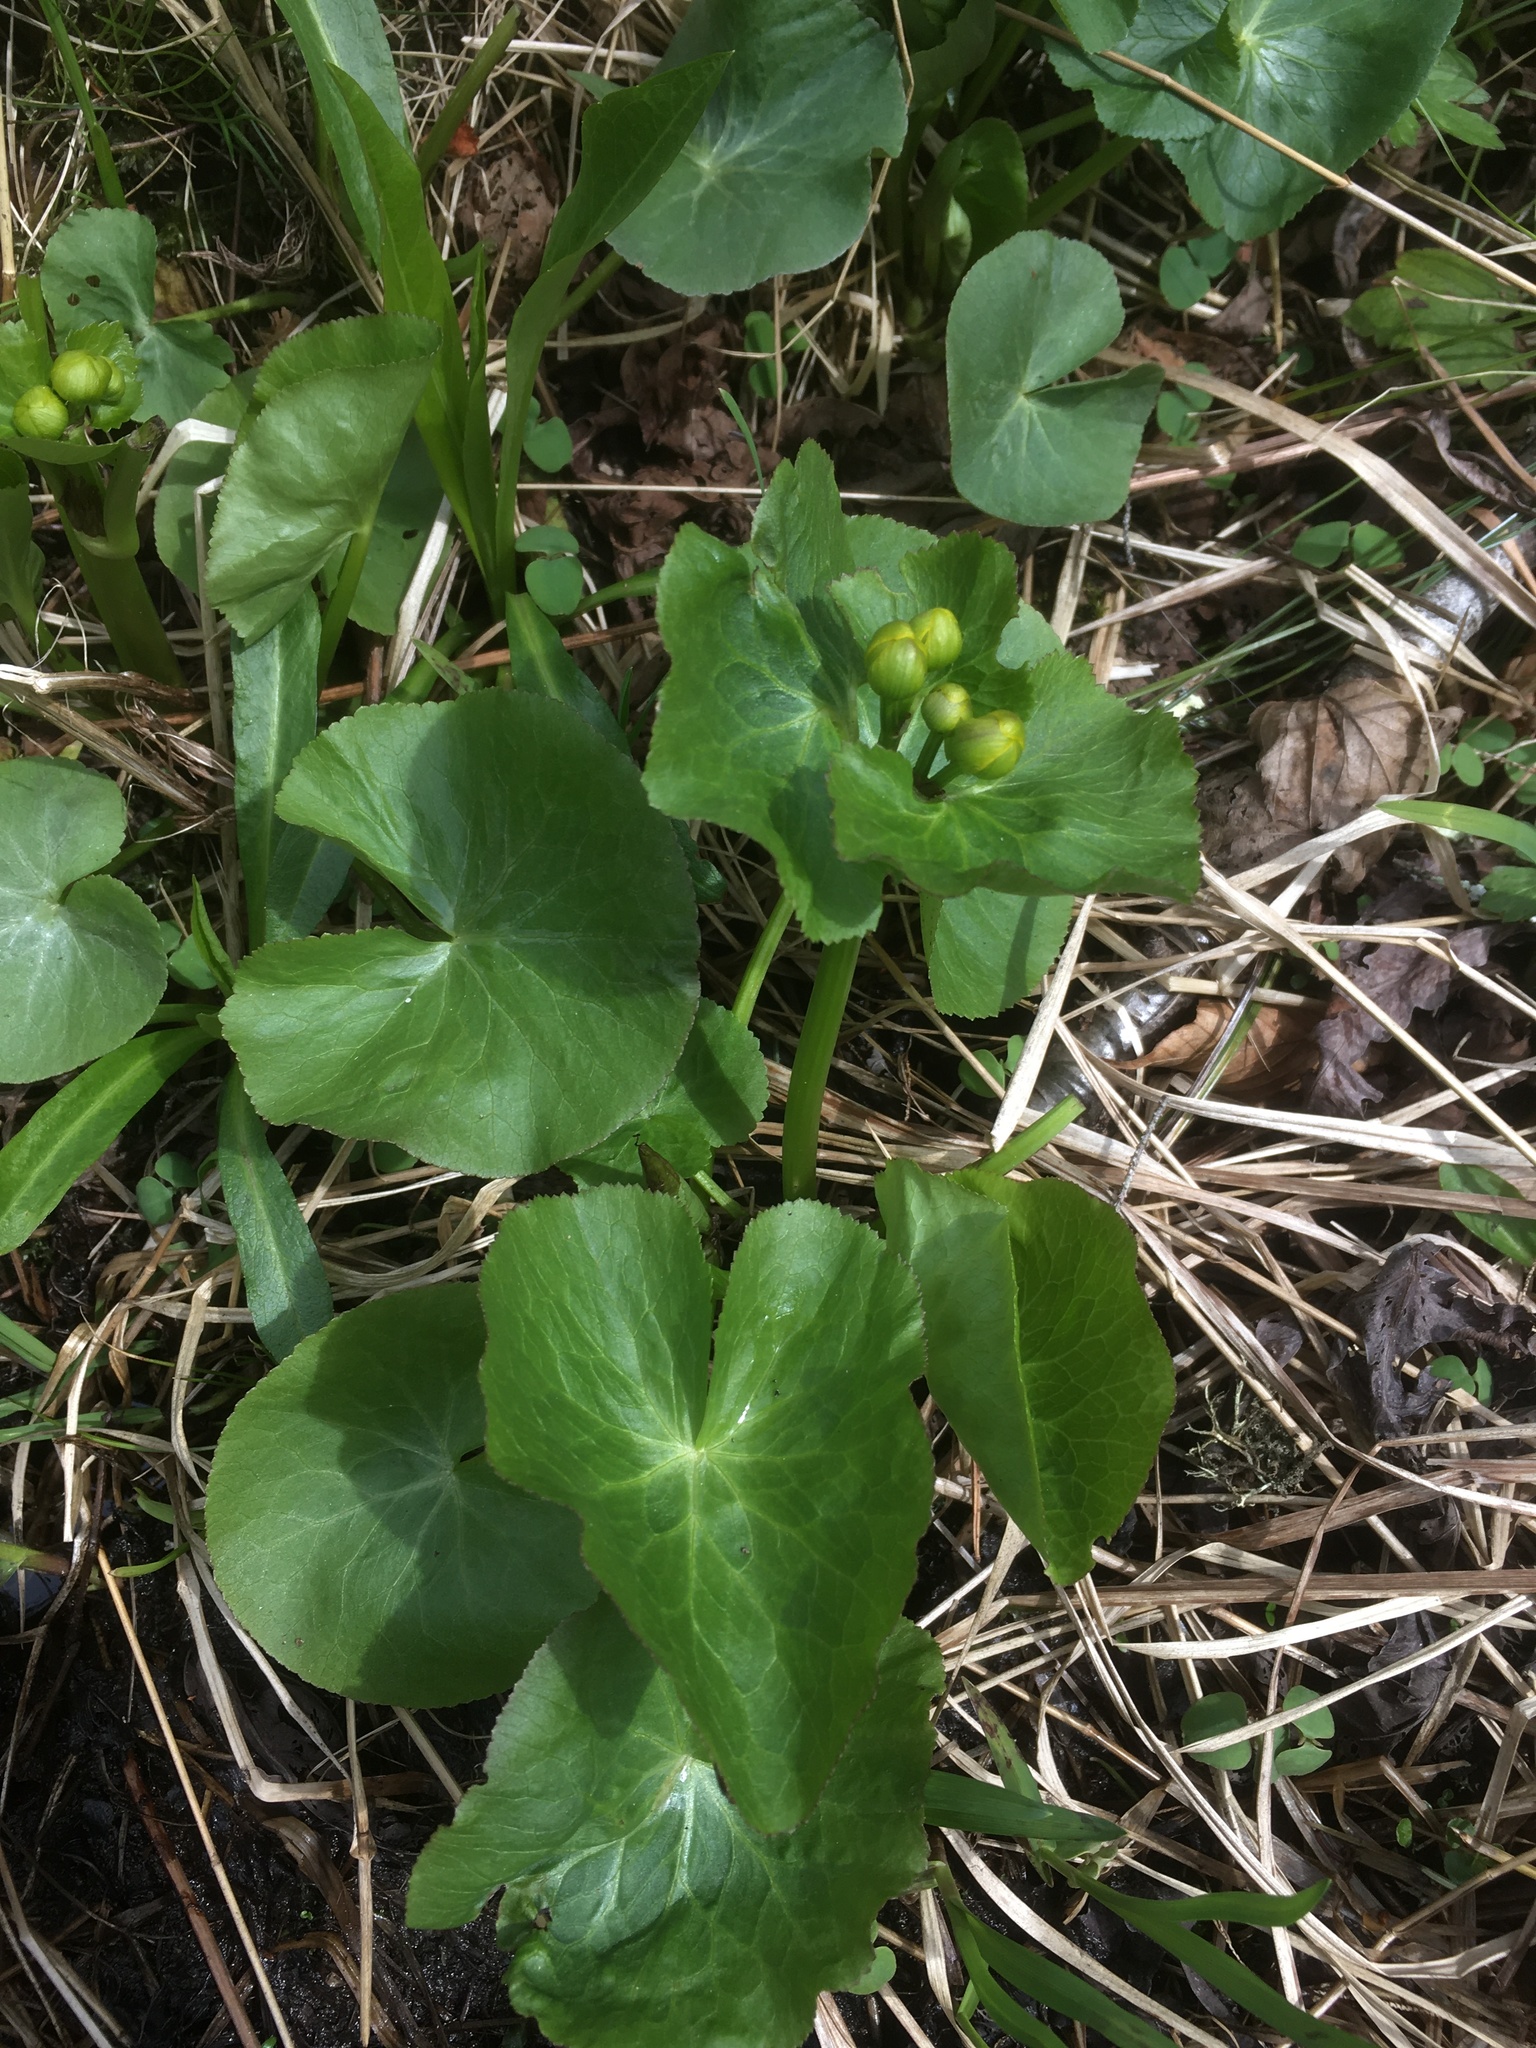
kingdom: Plantae
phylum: Tracheophyta
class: Magnoliopsida
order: Ranunculales
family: Ranunculaceae
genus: Caltha
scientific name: Caltha palustris
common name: Marsh marigold
